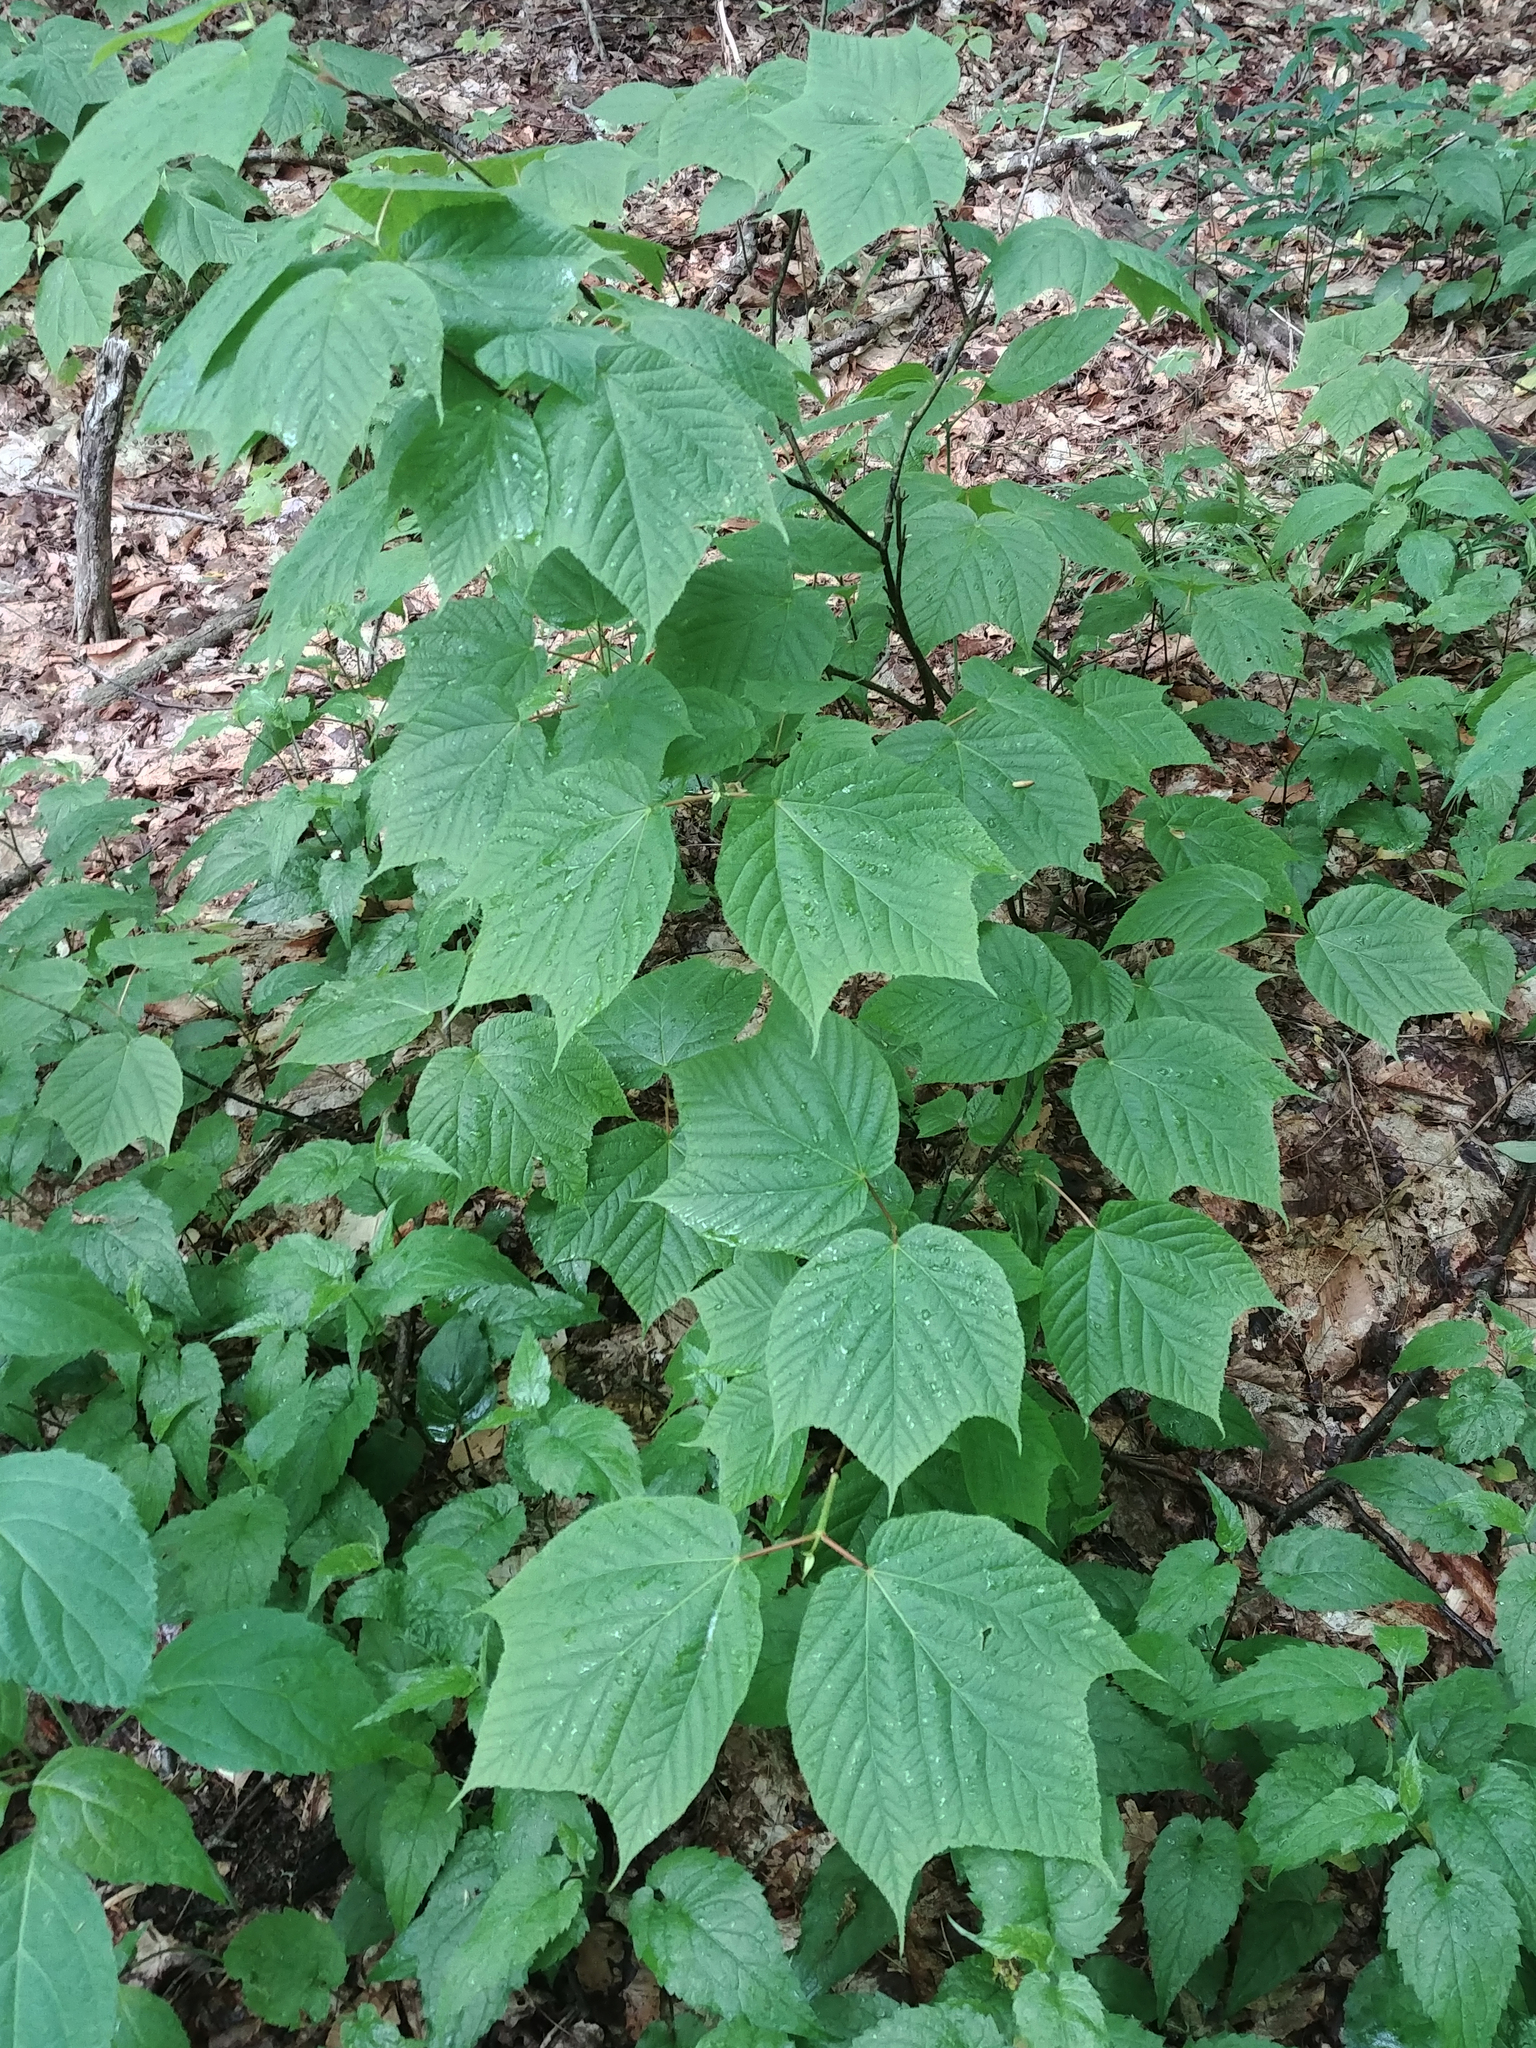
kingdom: Plantae
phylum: Tracheophyta
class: Magnoliopsida
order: Sapindales
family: Sapindaceae
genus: Acer
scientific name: Acer pensylvanicum
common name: Moosewood
